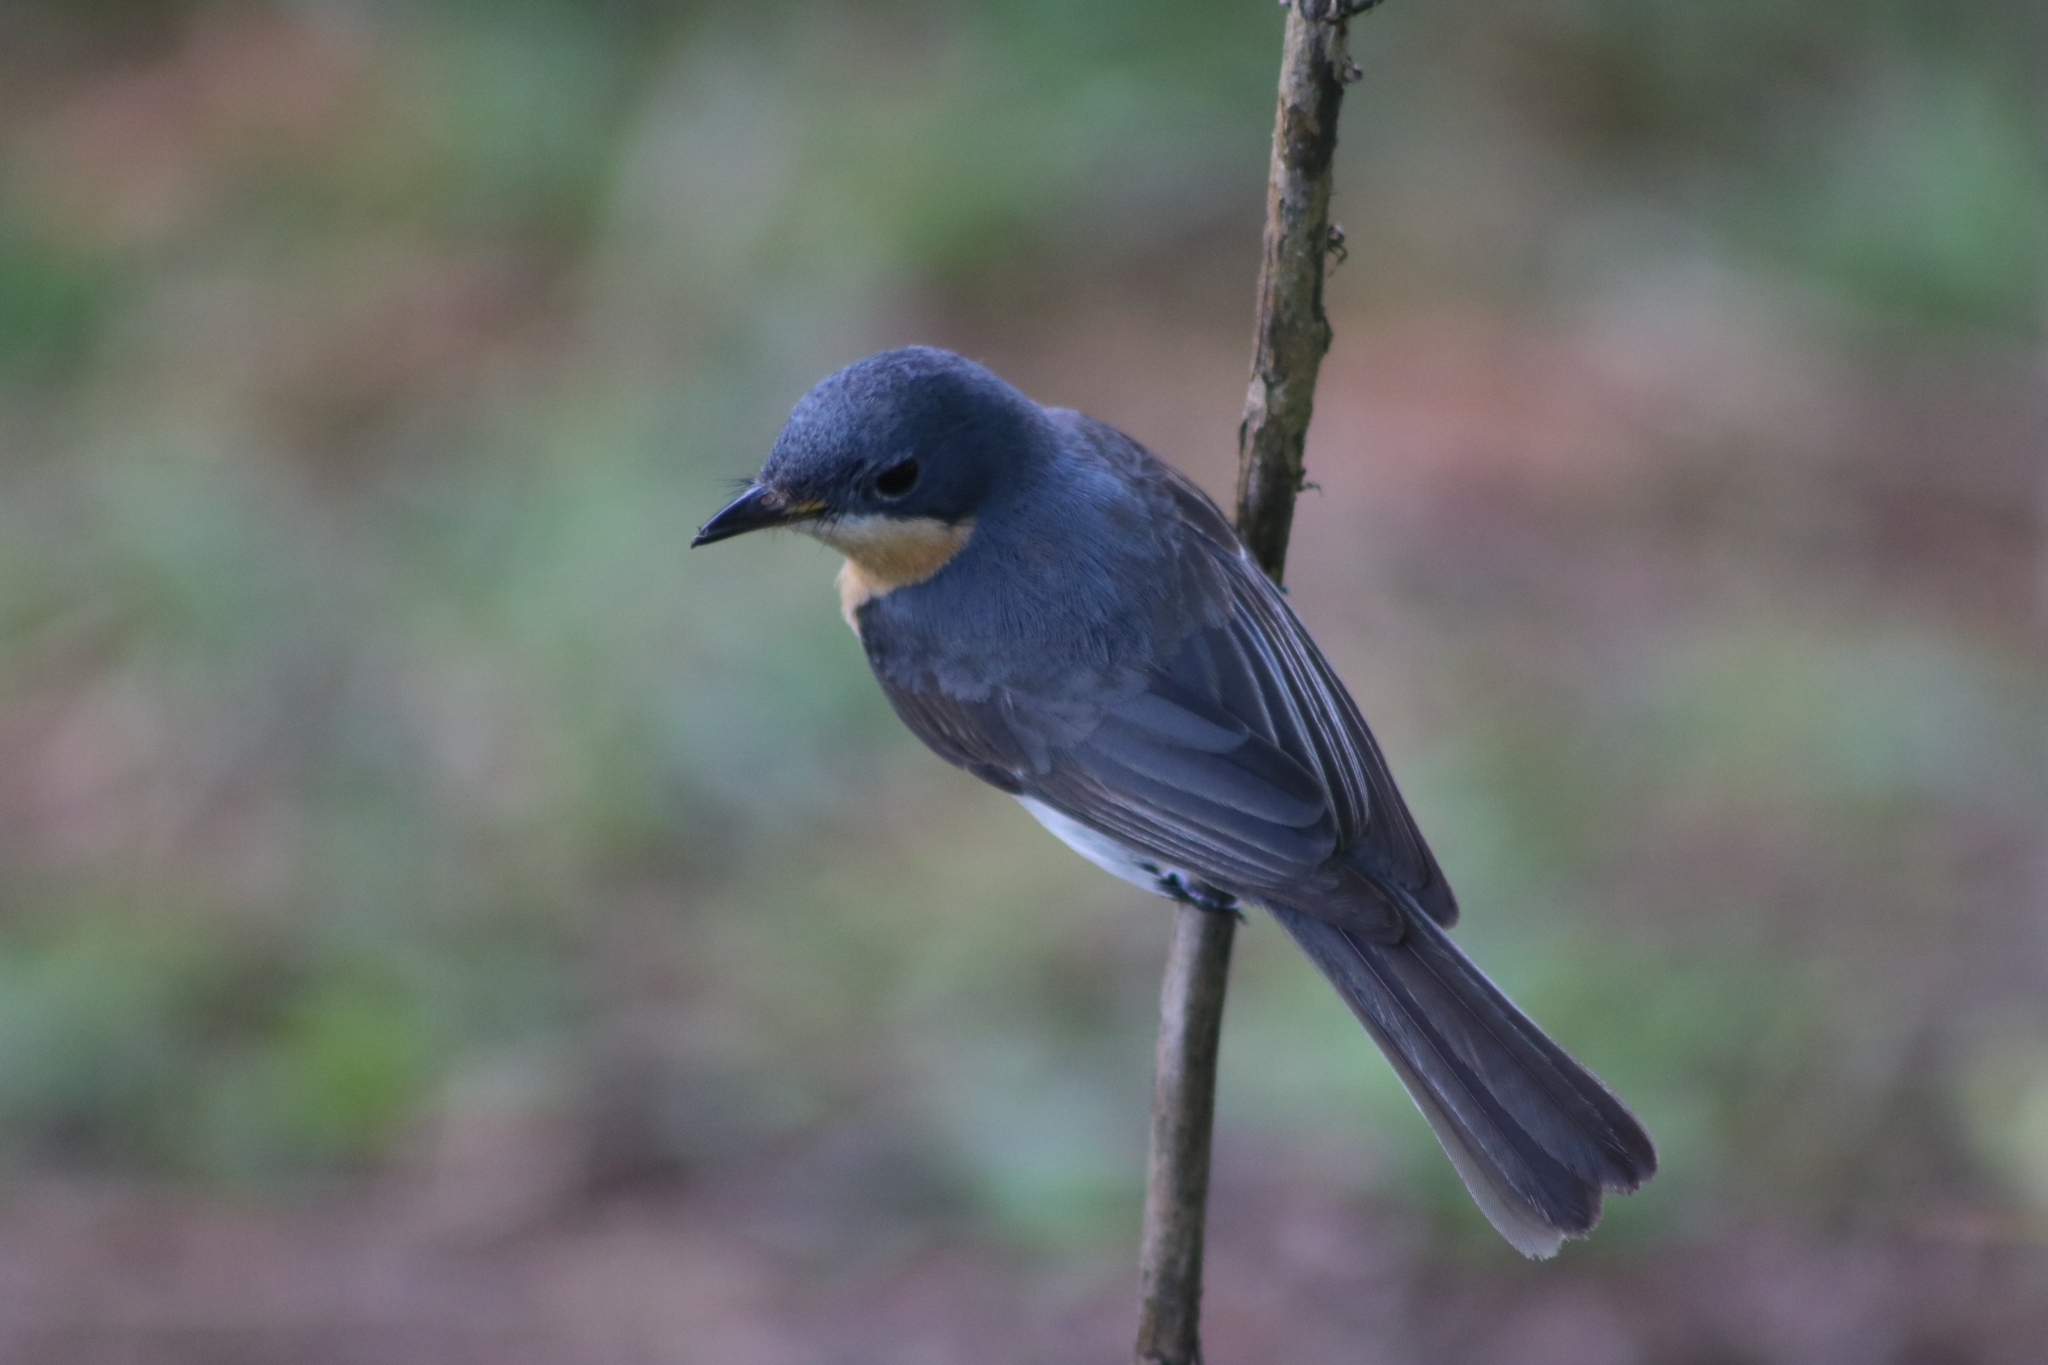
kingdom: Animalia
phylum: Chordata
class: Aves
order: Passeriformes
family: Monarchidae
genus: Myiagra
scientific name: Myiagra rubecula
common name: Leaden flycatcher
